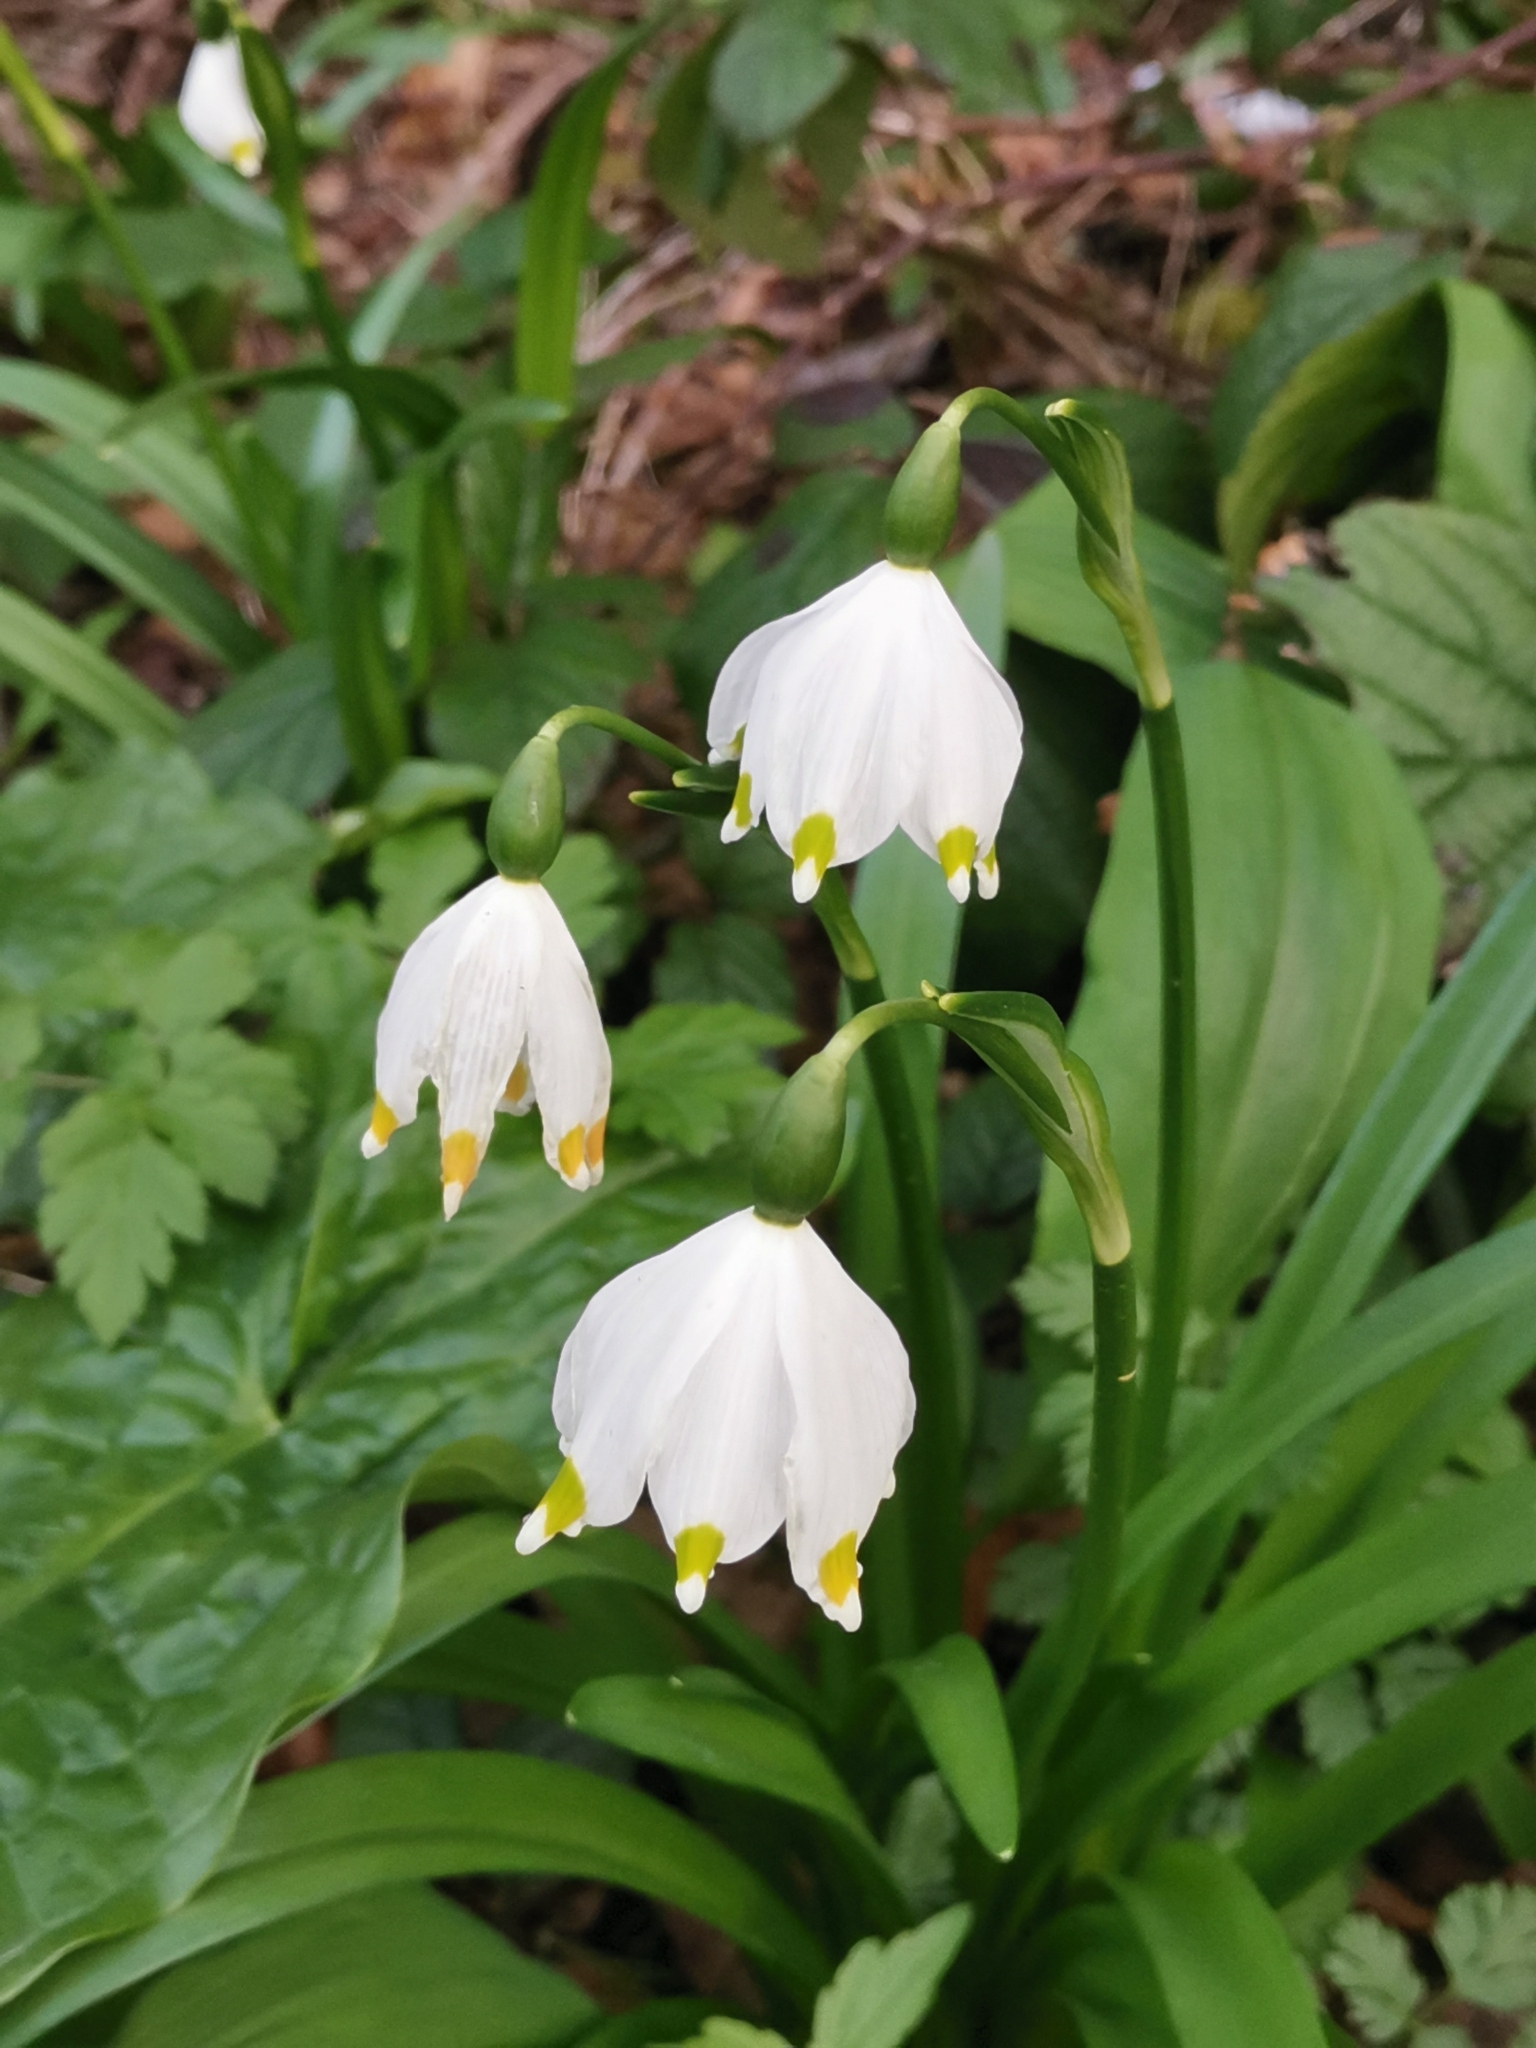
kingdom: Plantae
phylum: Tracheophyta
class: Liliopsida
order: Asparagales
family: Amaryllidaceae
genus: Leucojum
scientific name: Leucojum vernum
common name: Spring snowflake
